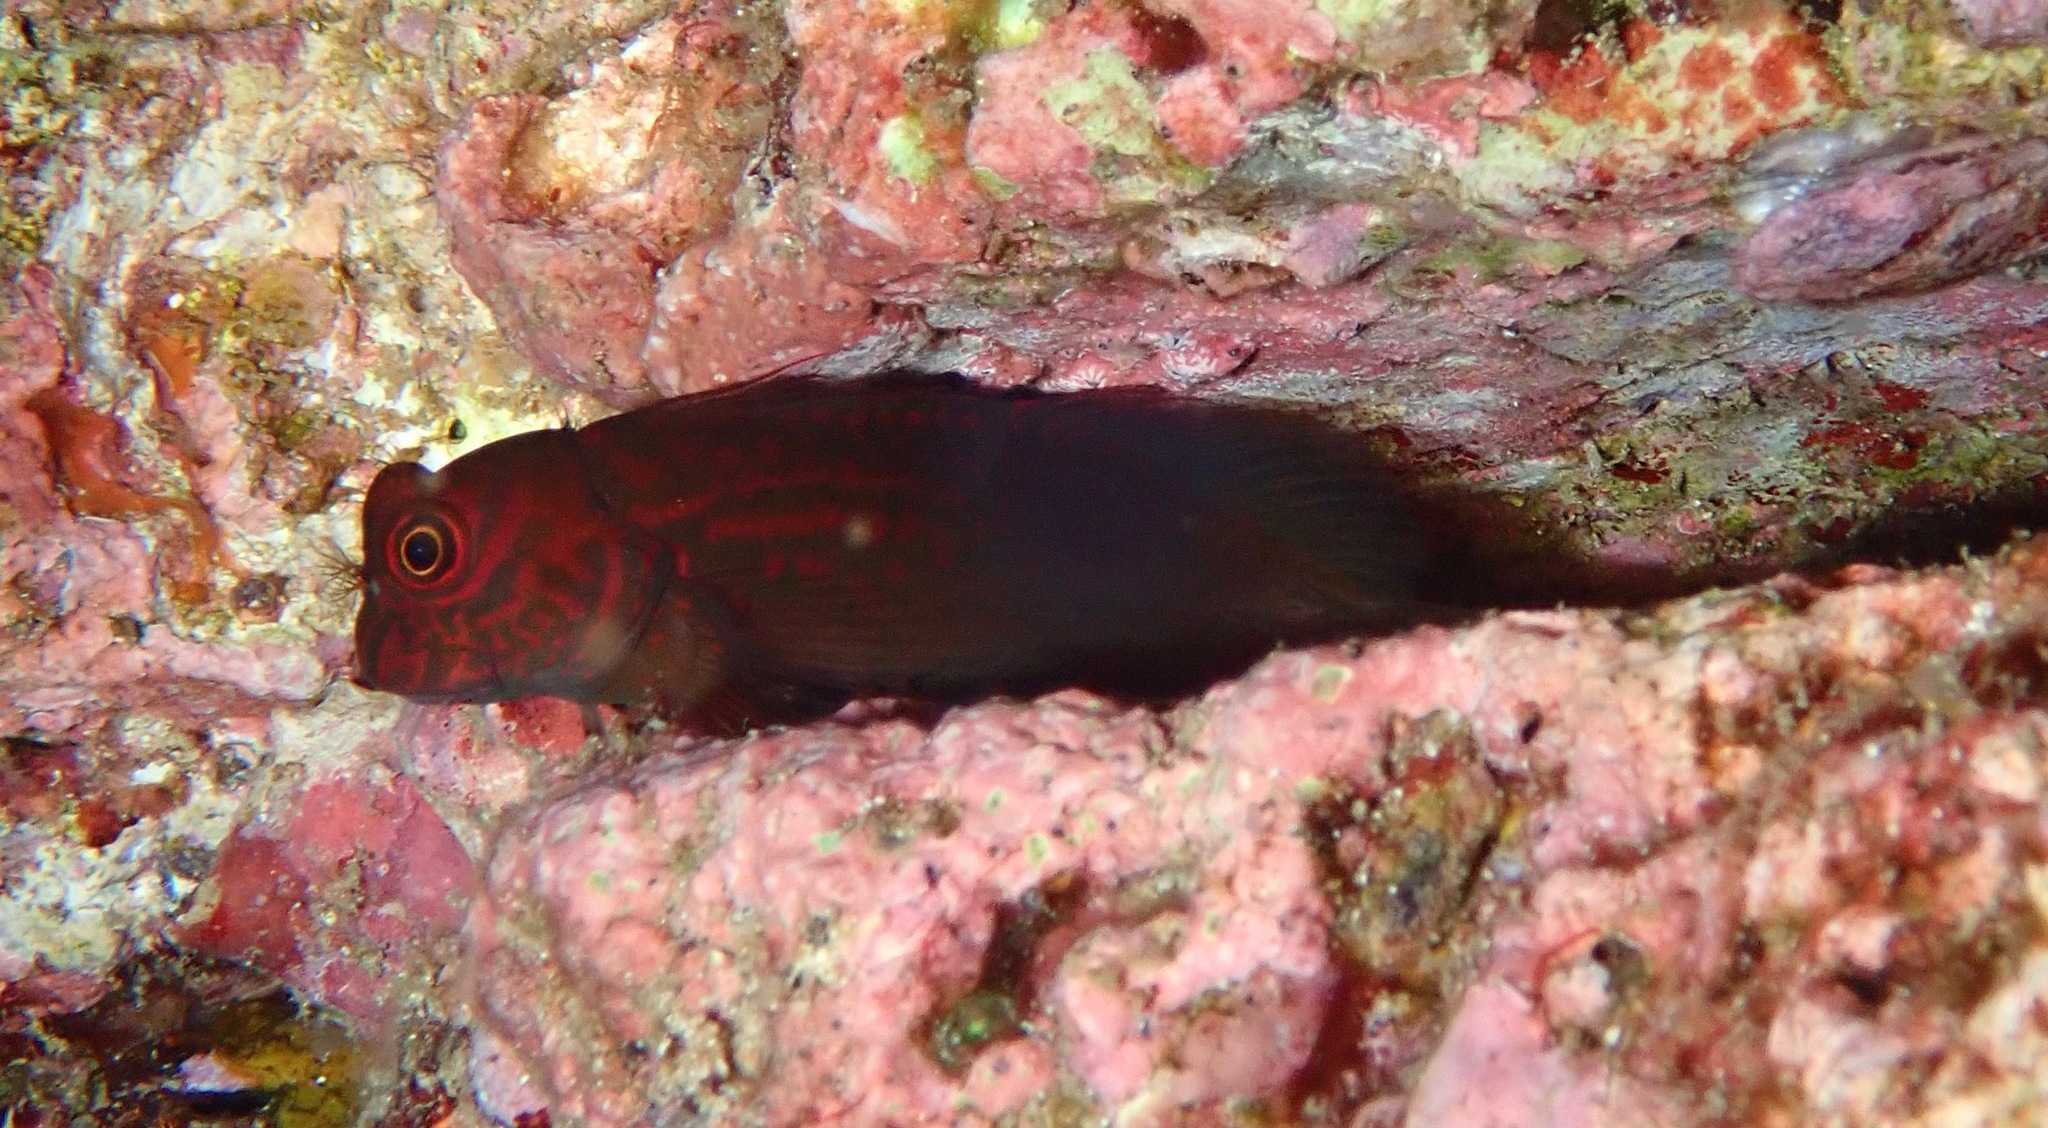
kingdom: Animalia
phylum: Chordata
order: Perciformes
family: Blenniidae
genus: Cirripectes
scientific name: Cirripectes filamentosus
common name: Filamentous blenny
